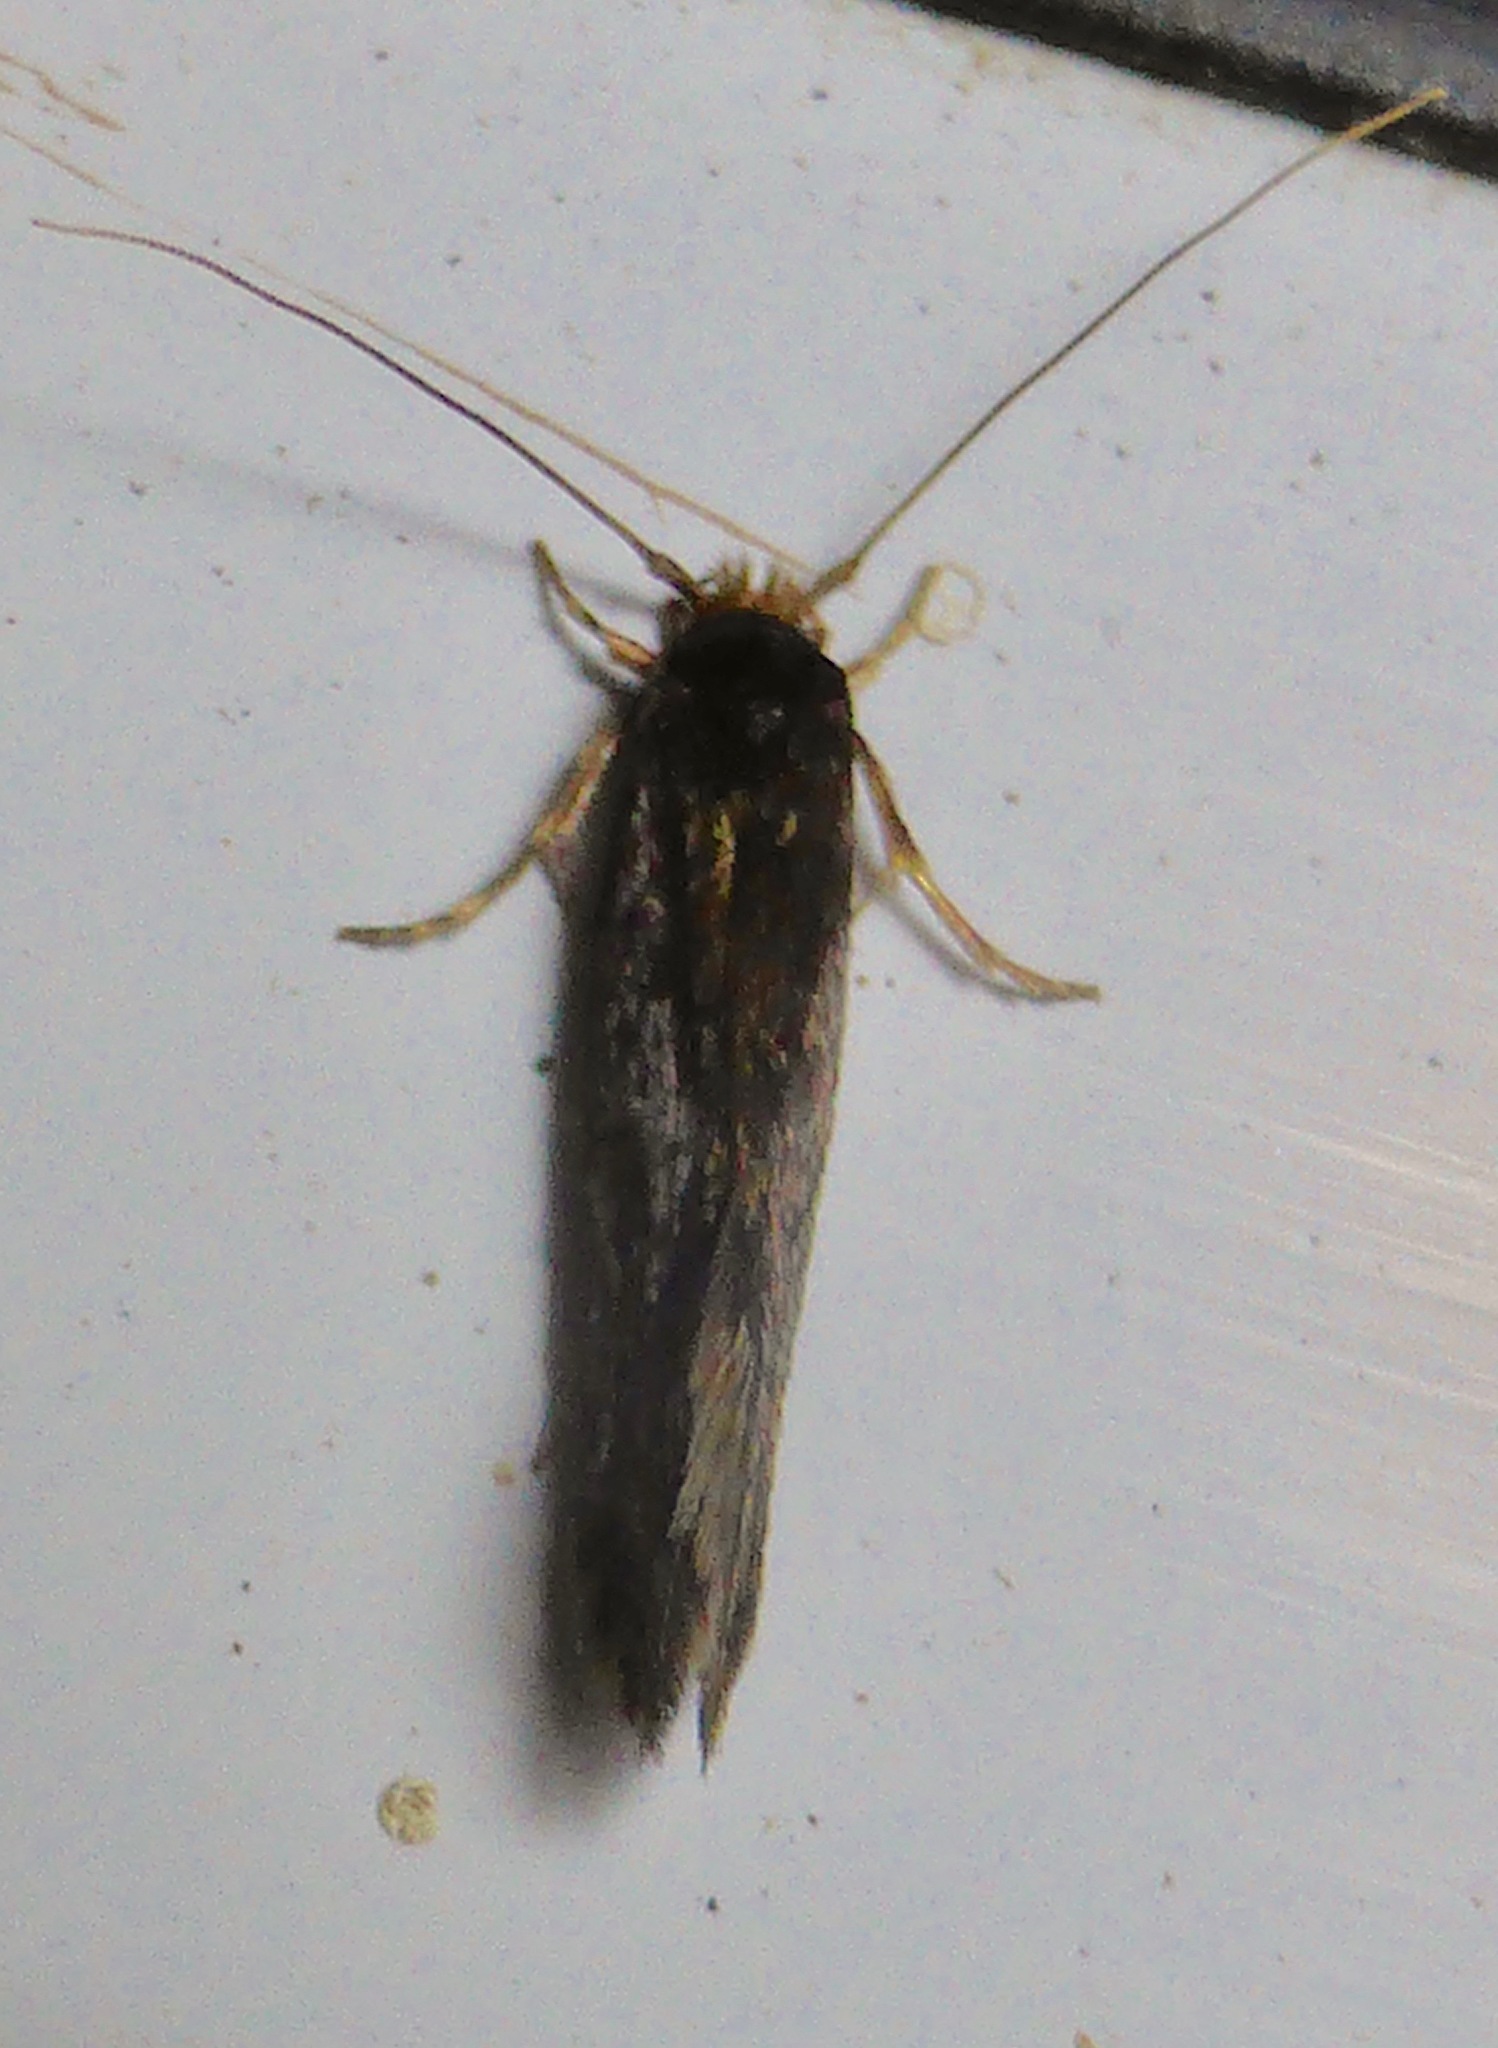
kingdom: Animalia
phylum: Arthropoda
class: Insecta
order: Lepidoptera
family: Tineidae
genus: Opogona
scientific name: Opogona omoscopa
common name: Moth
